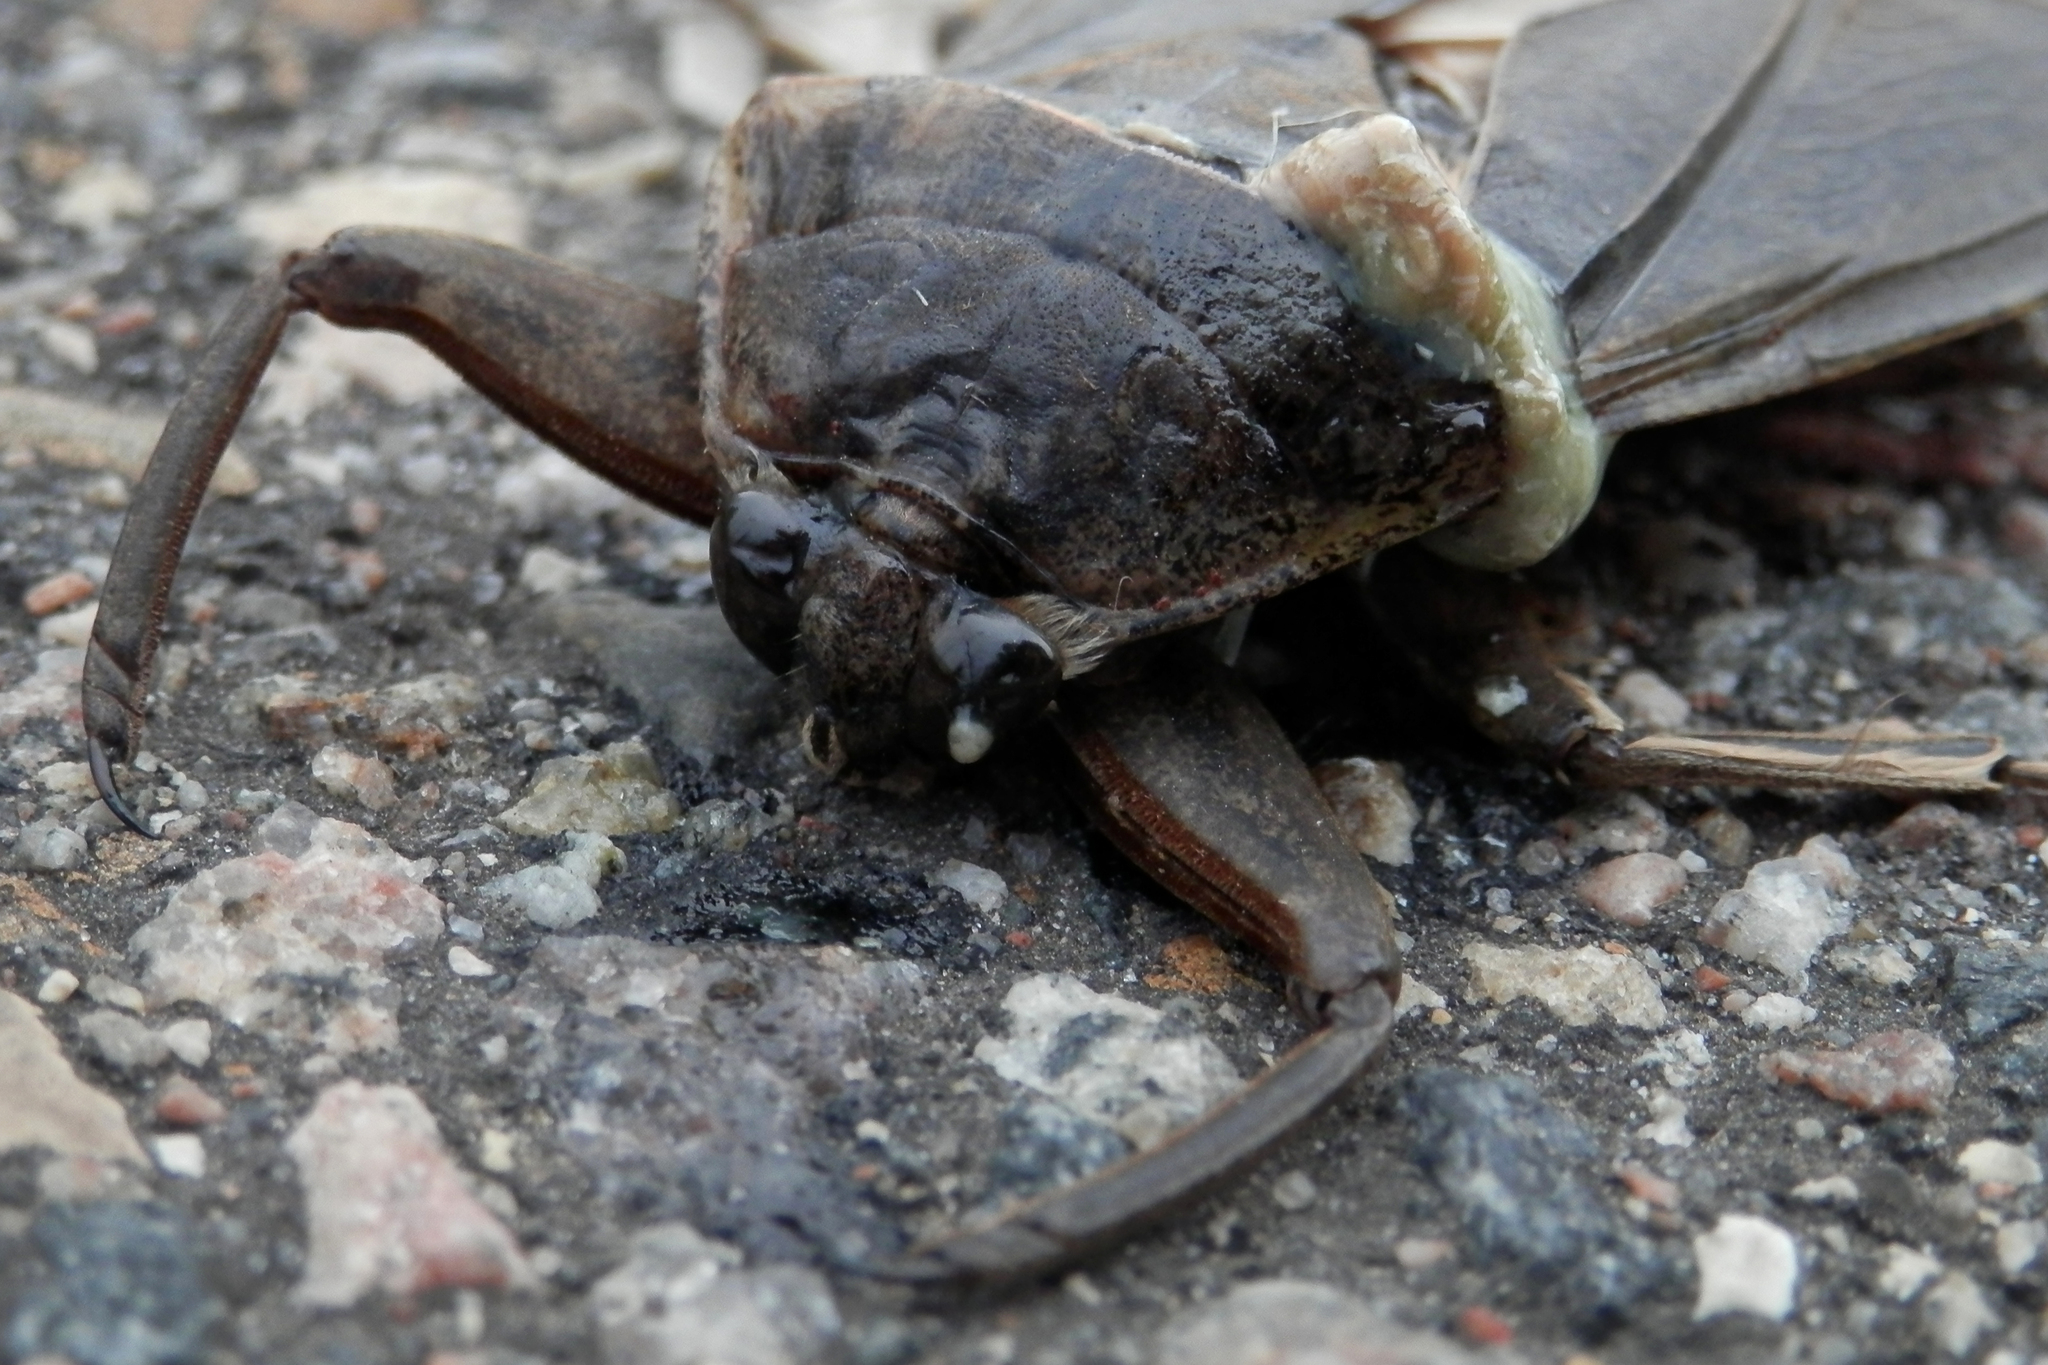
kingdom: Animalia
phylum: Arthropoda
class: Insecta
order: Hemiptera
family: Belostomatidae
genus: Lethocerus
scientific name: Lethocerus americanus
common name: Giant water bug
